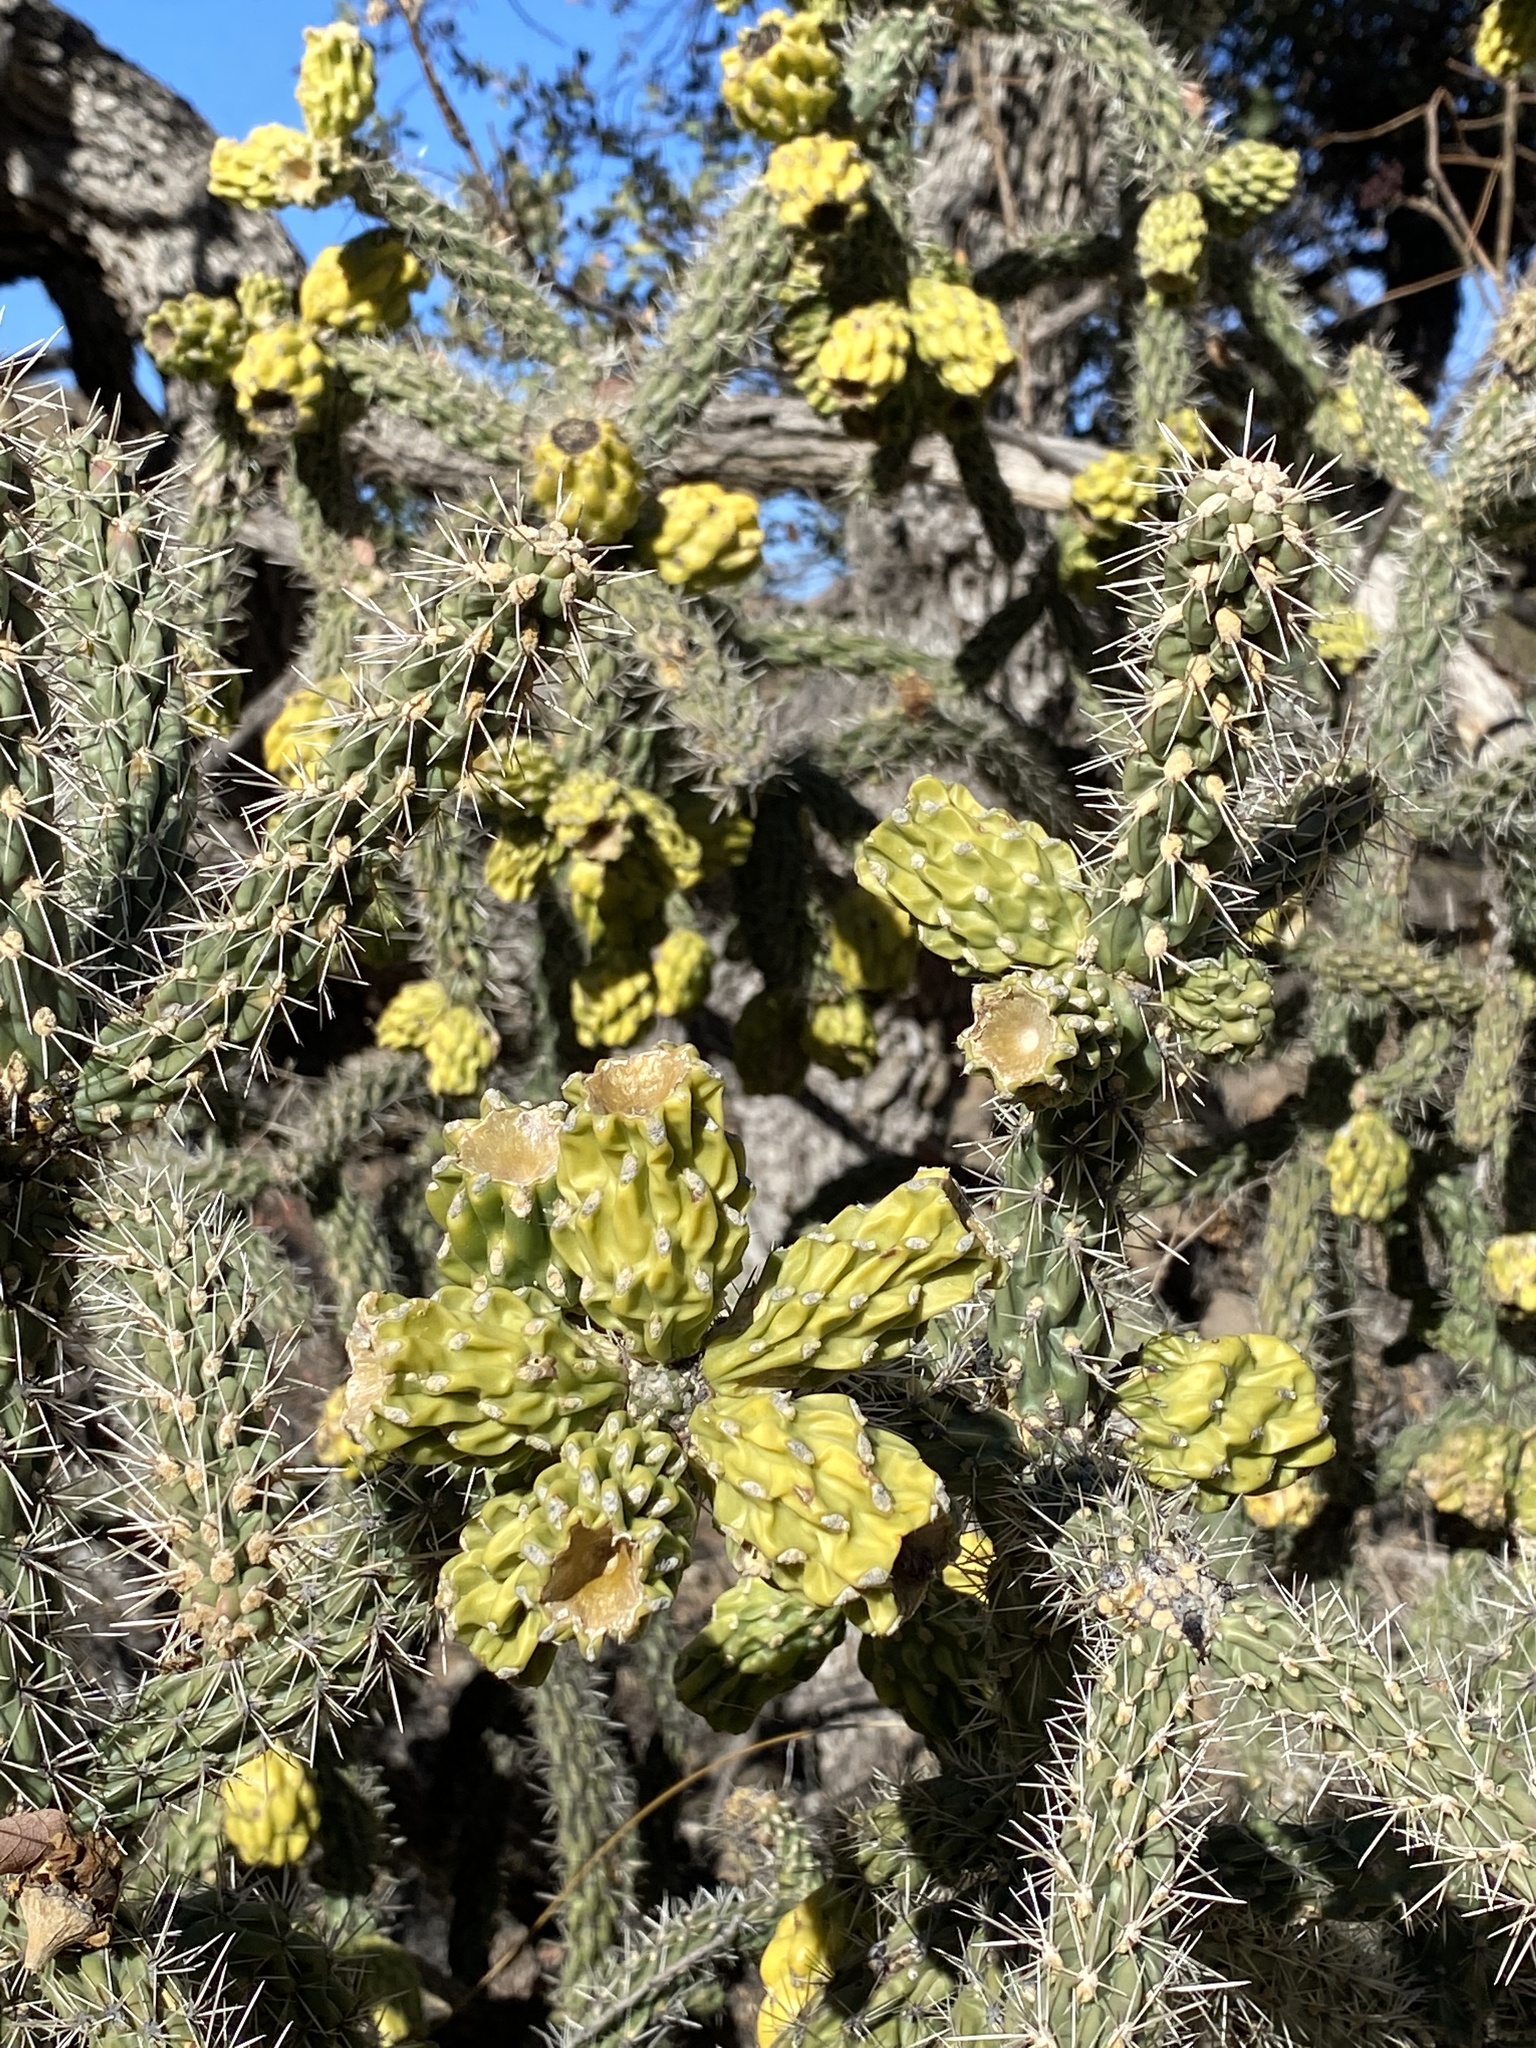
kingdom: Plantae
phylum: Tracheophyta
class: Magnoliopsida
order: Caryophyllales
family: Cactaceae
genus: Cylindropuntia
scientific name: Cylindropuntia imbricata
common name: Candelabrum cactus
